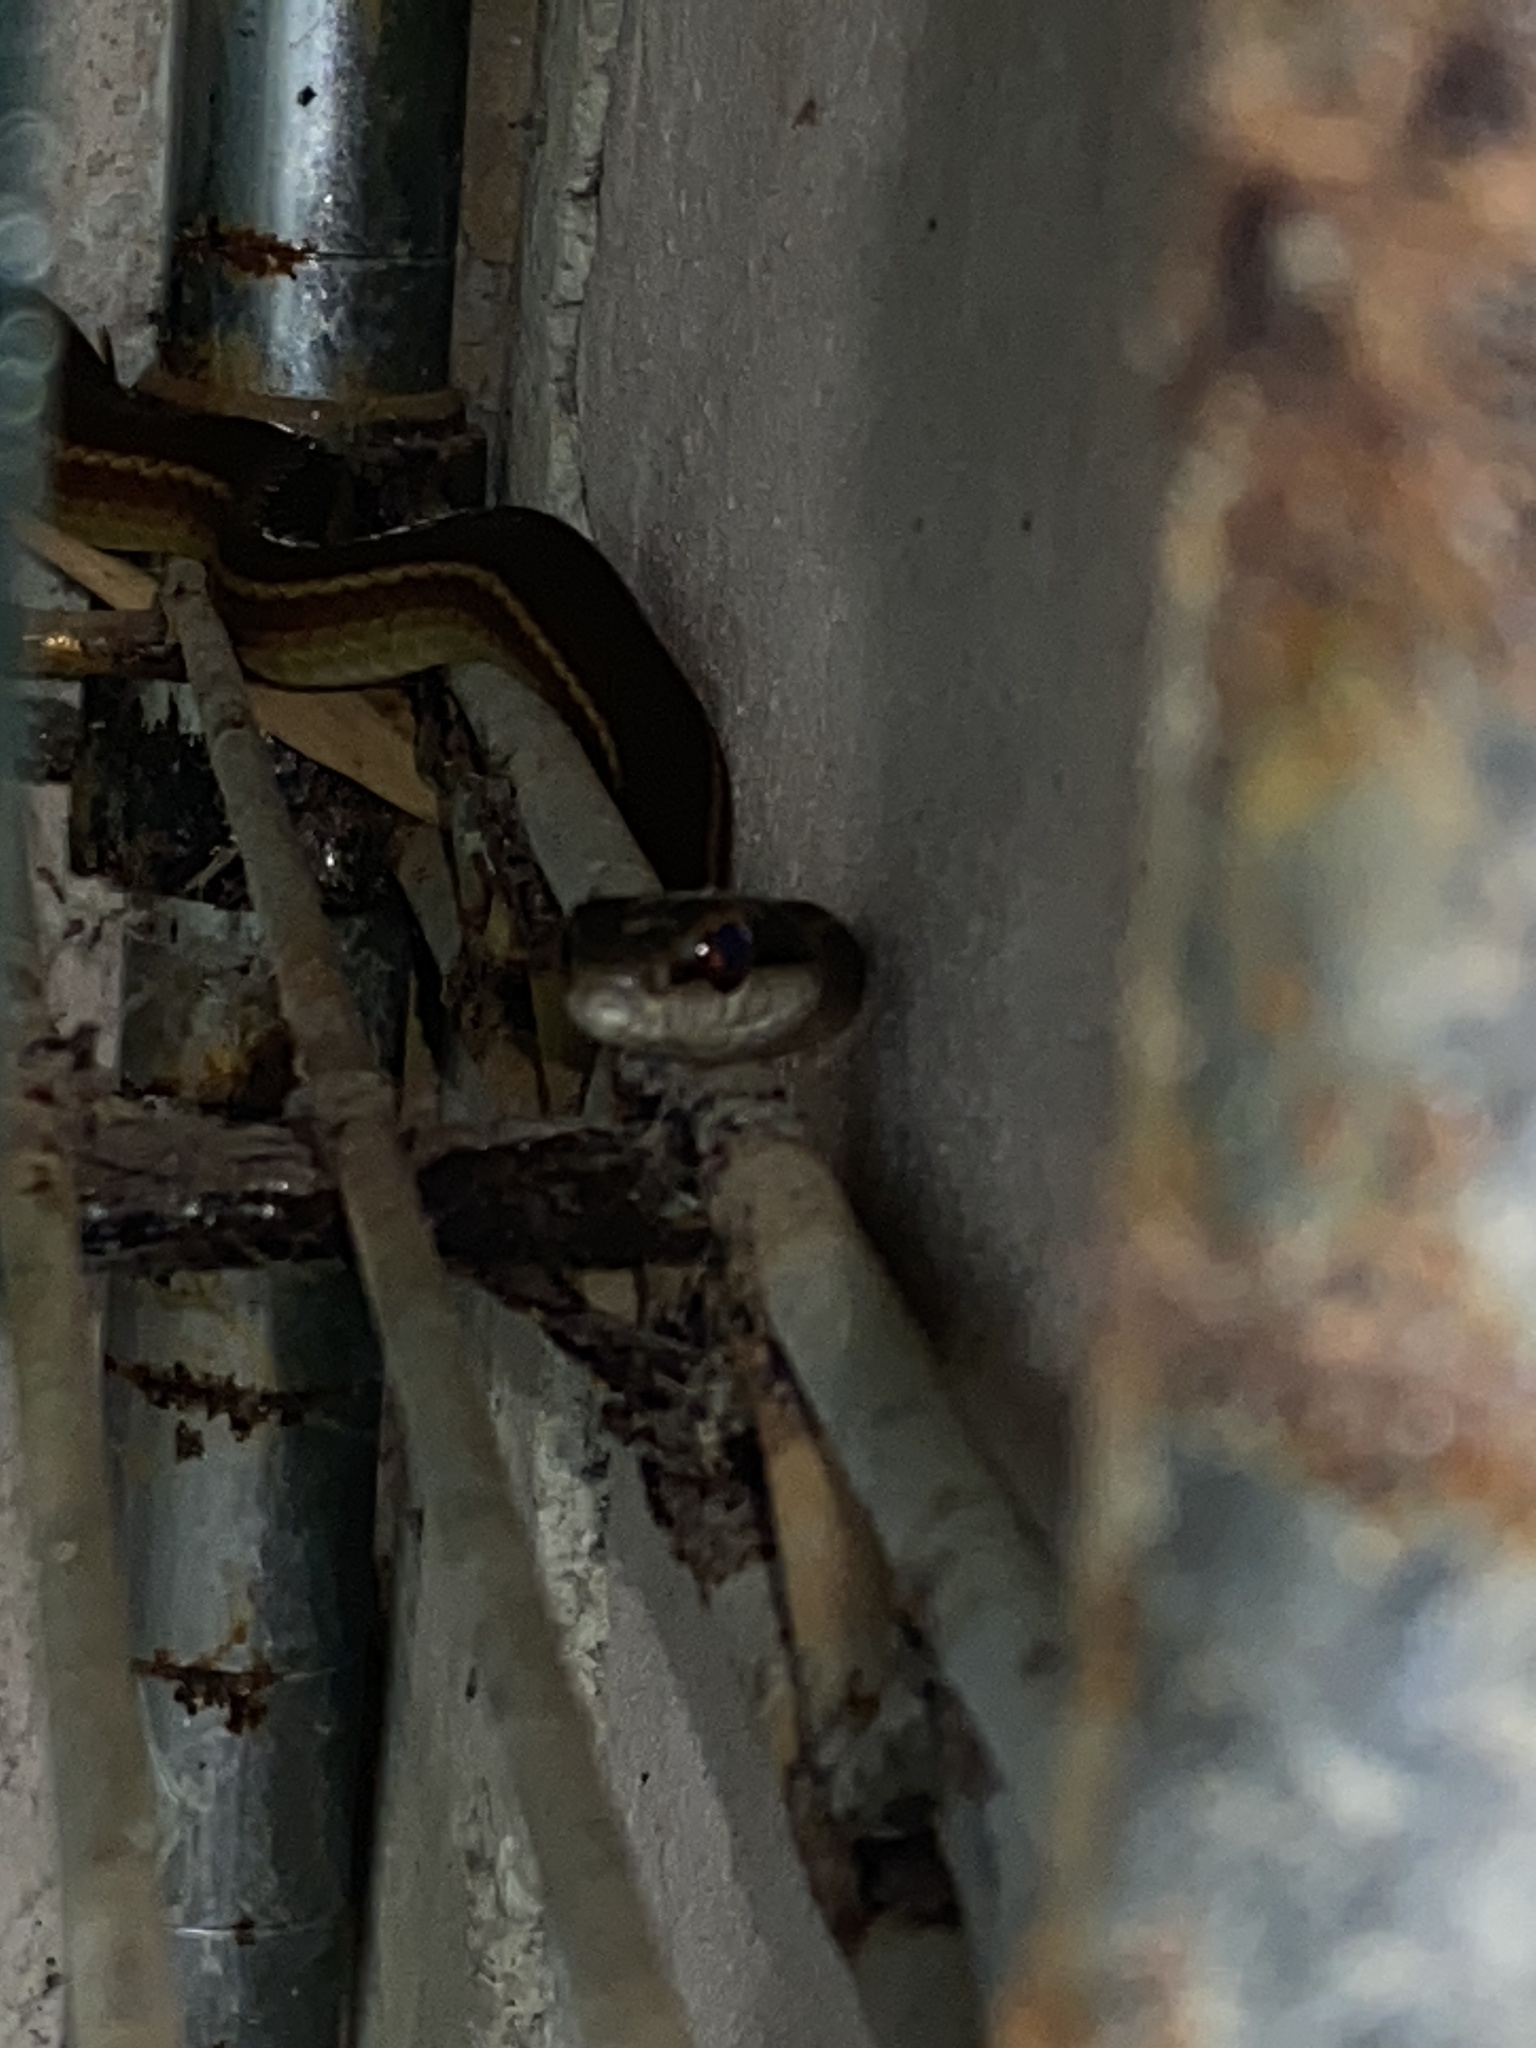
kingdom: Animalia
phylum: Chordata
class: Squamata
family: Colubridae
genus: Mastigodryas
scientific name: Mastigodryas boddaerti
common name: Boddaert's tropical racer
